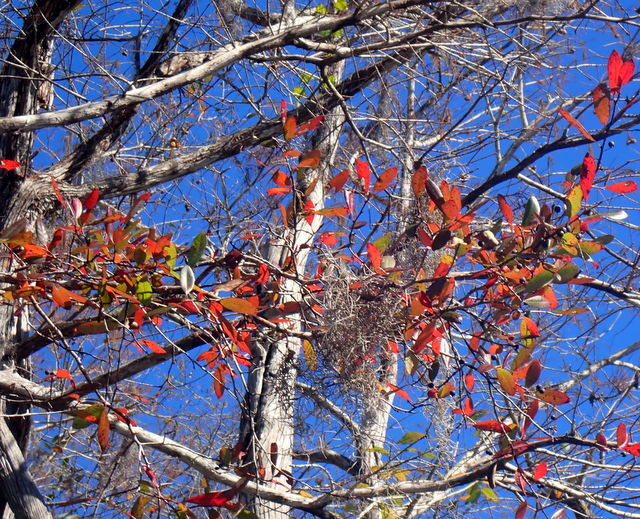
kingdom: Plantae
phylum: Tracheophyta
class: Magnoliopsida
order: Cornales
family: Nyssaceae
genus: Nyssa
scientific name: Nyssa biflora
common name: Swamp blackgum
